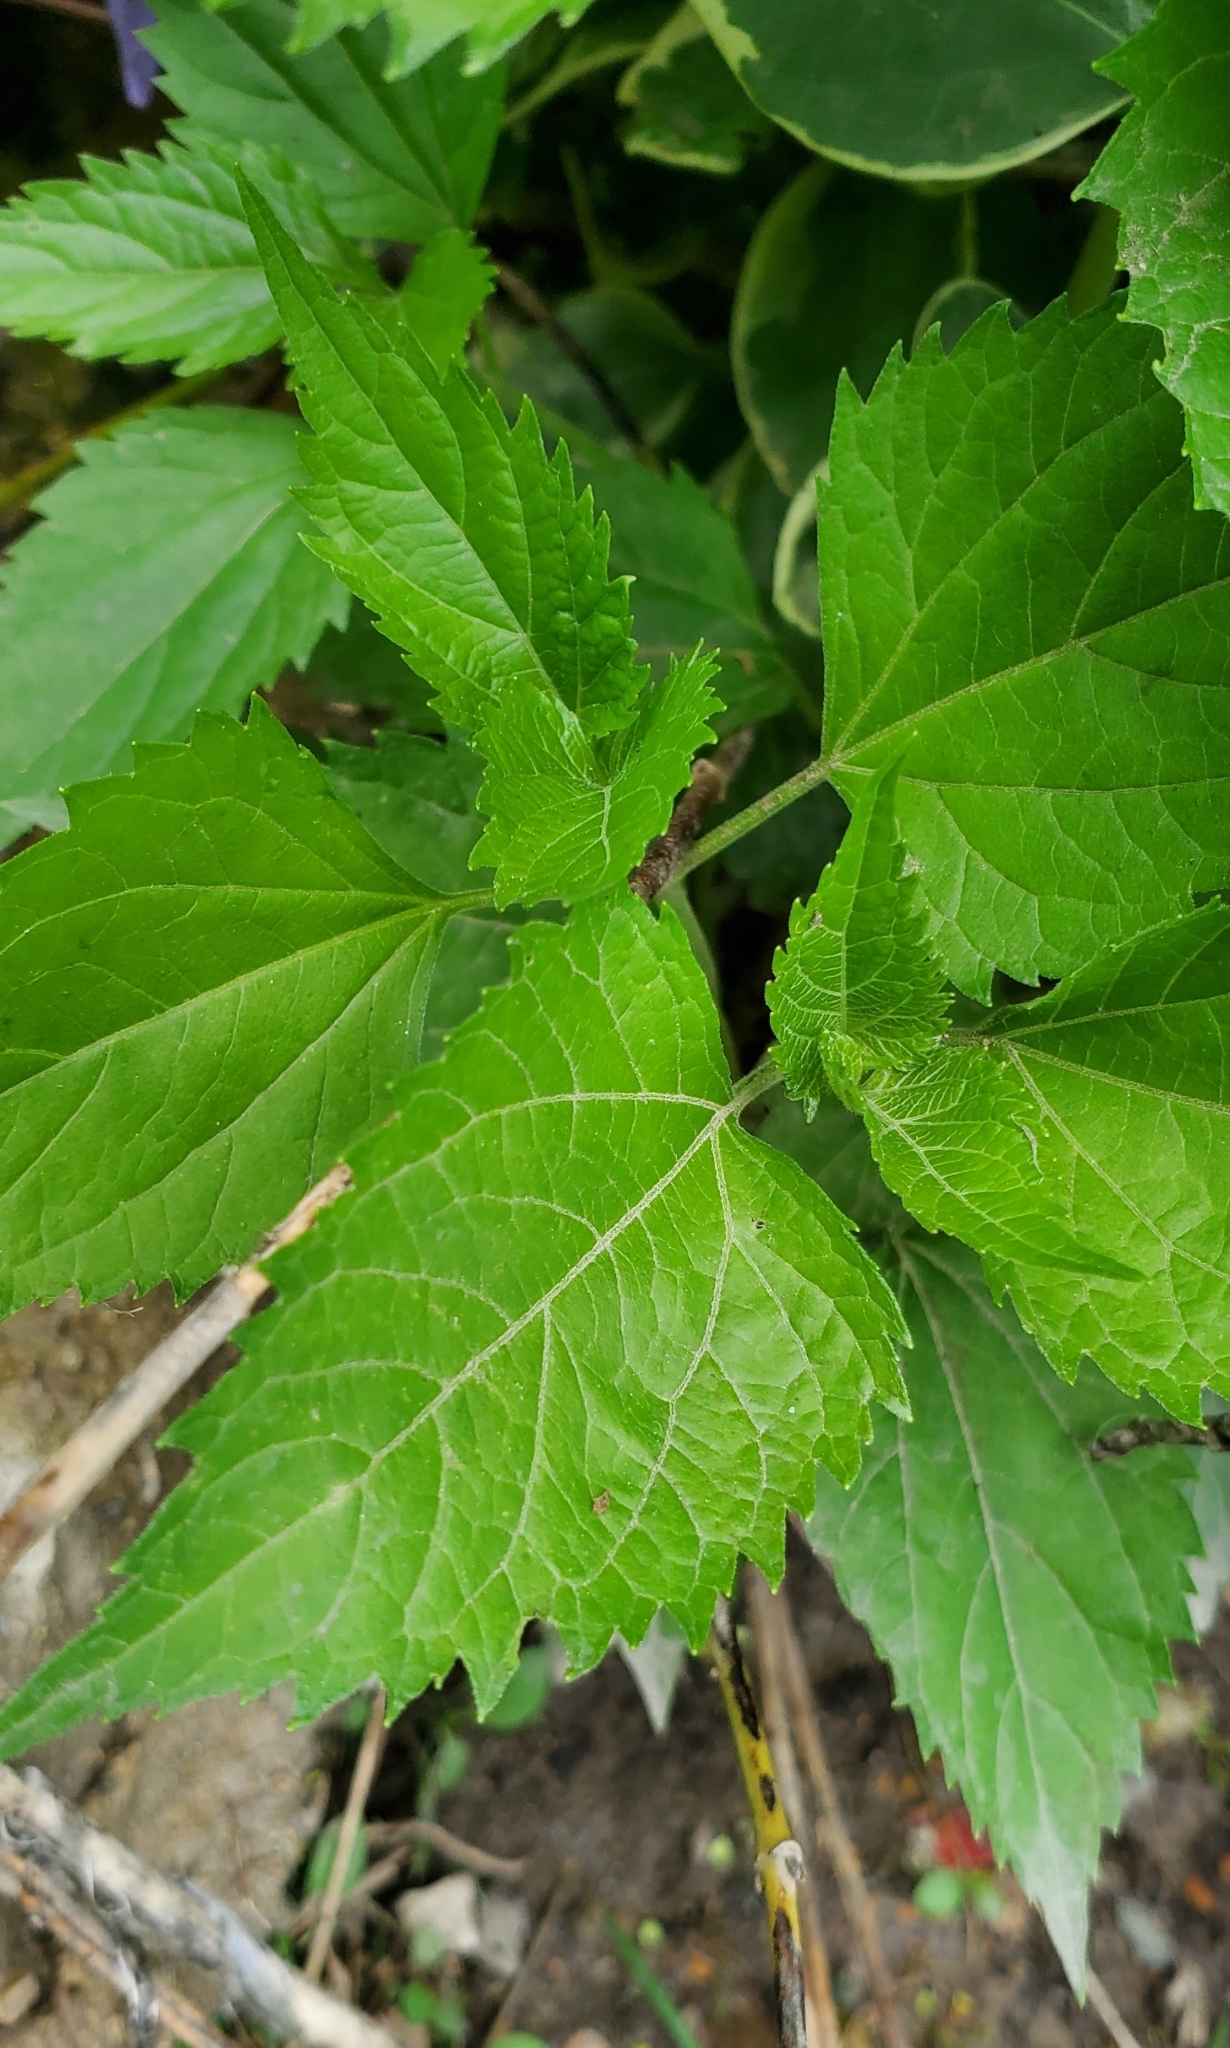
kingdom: Plantae
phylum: Tracheophyta
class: Magnoliopsida
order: Asterales
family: Asteraceae
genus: Ageratina
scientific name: Ageratina altissima
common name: White snakeroot
